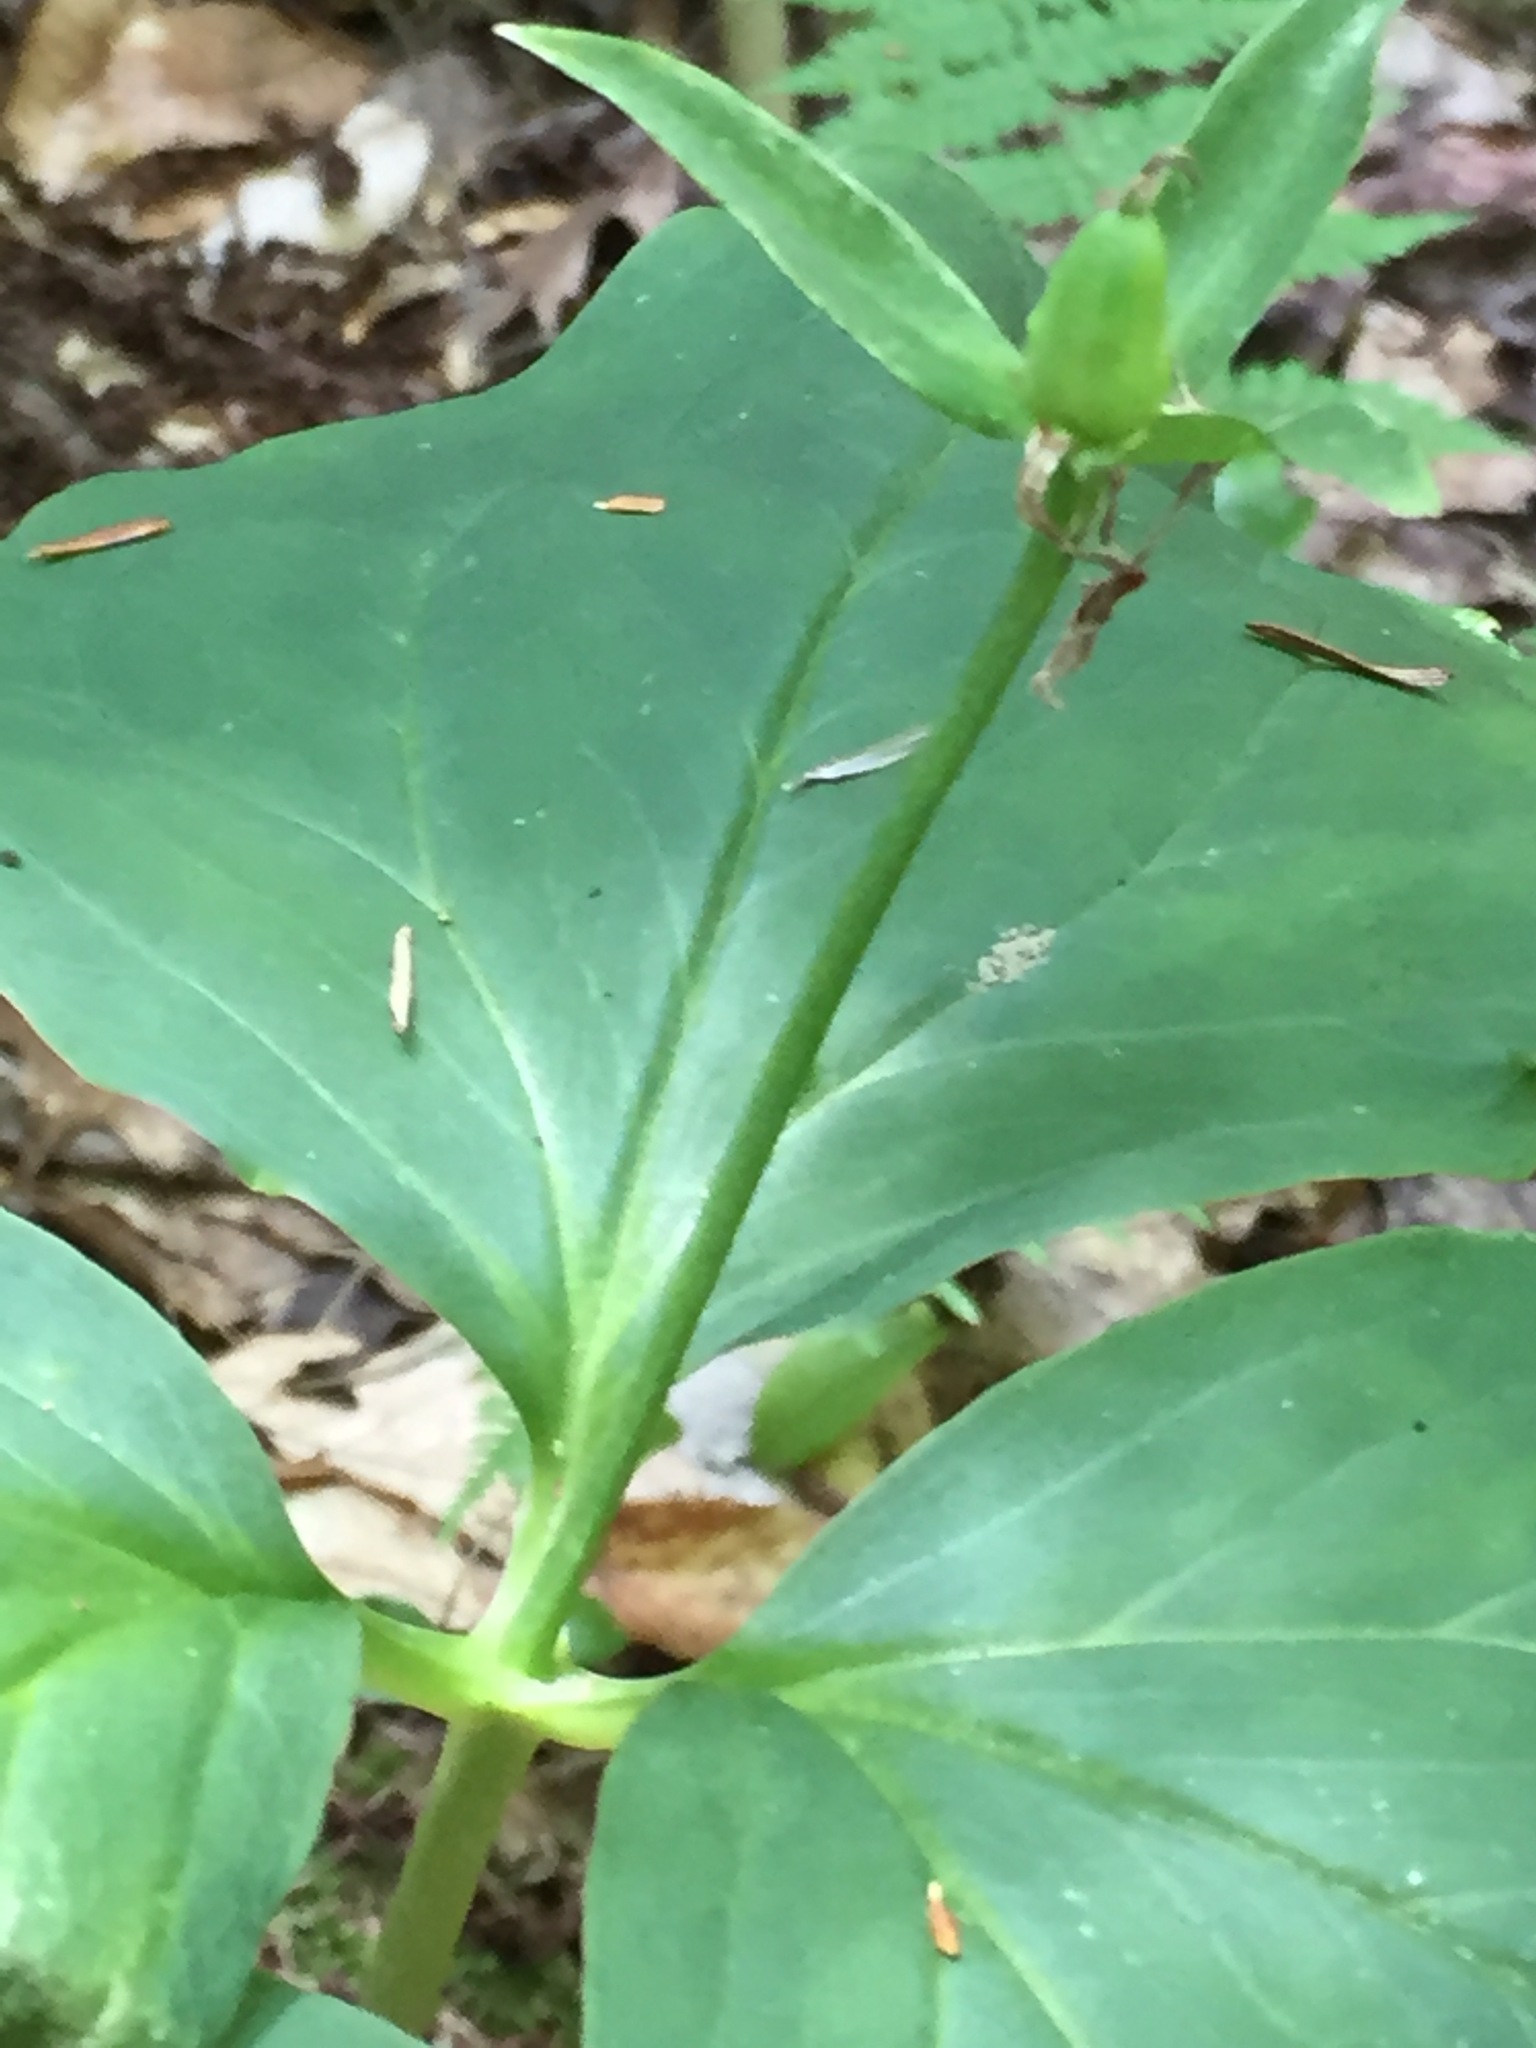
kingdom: Plantae
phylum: Tracheophyta
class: Liliopsida
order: Liliales
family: Melanthiaceae
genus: Trillium
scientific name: Trillium undulatum
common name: Paint trillium
